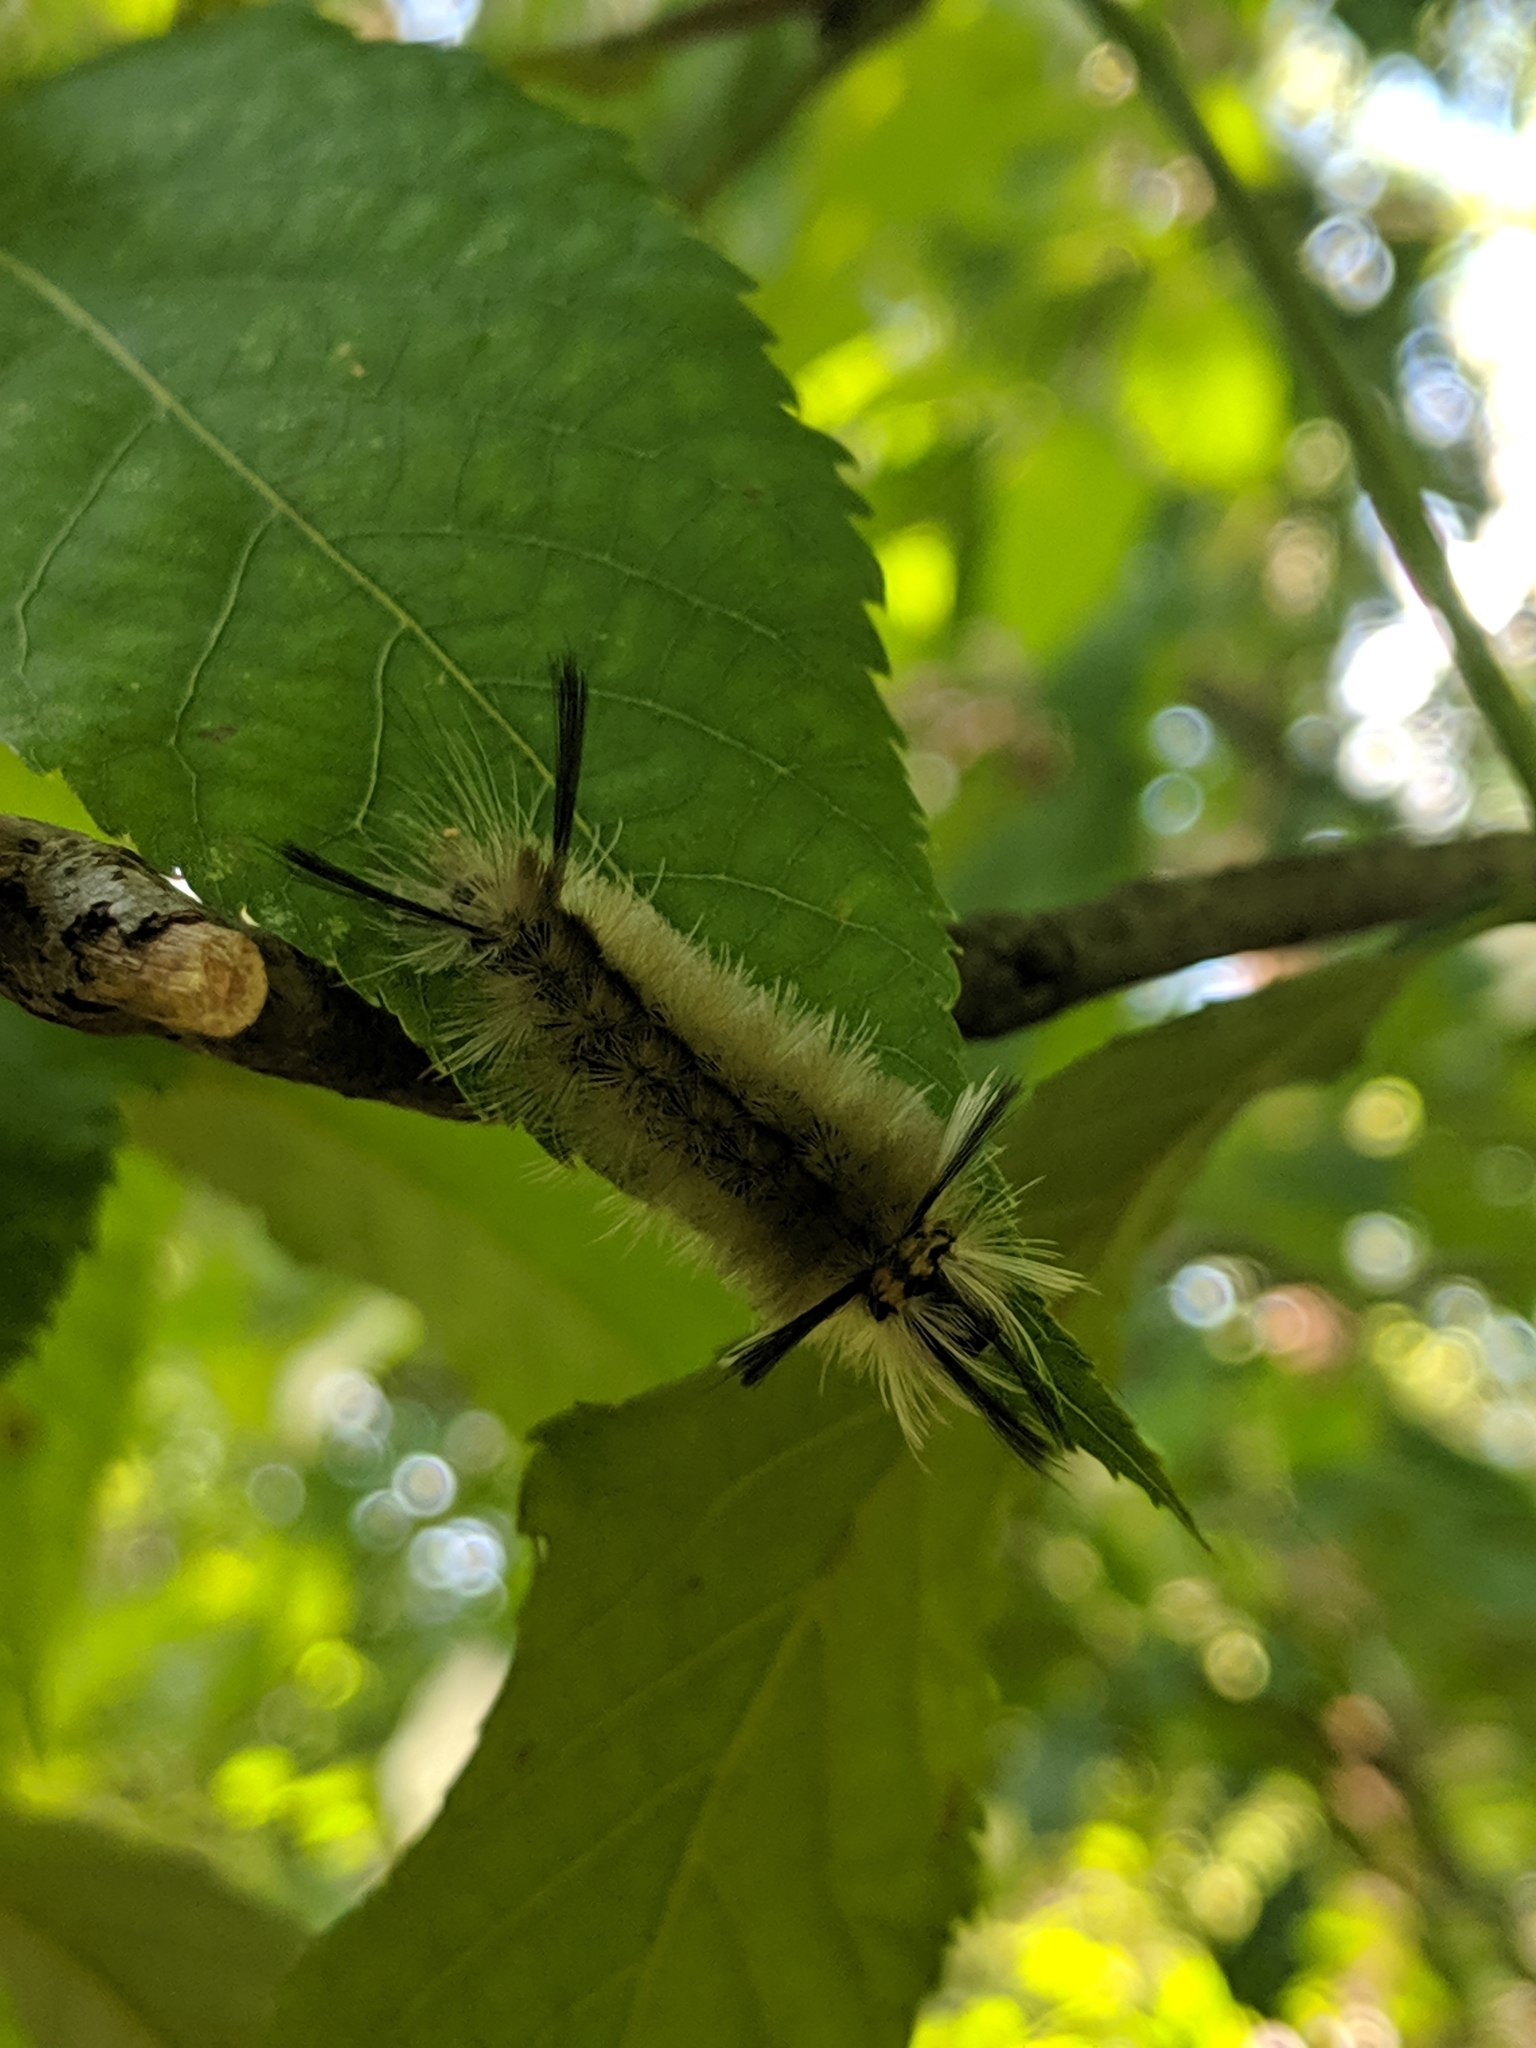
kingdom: Animalia
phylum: Arthropoda
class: Insecta
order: Lepidoptera
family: Erebidae
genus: Halysidota
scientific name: Halysidota tessellaris
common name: Banded tussock moth
